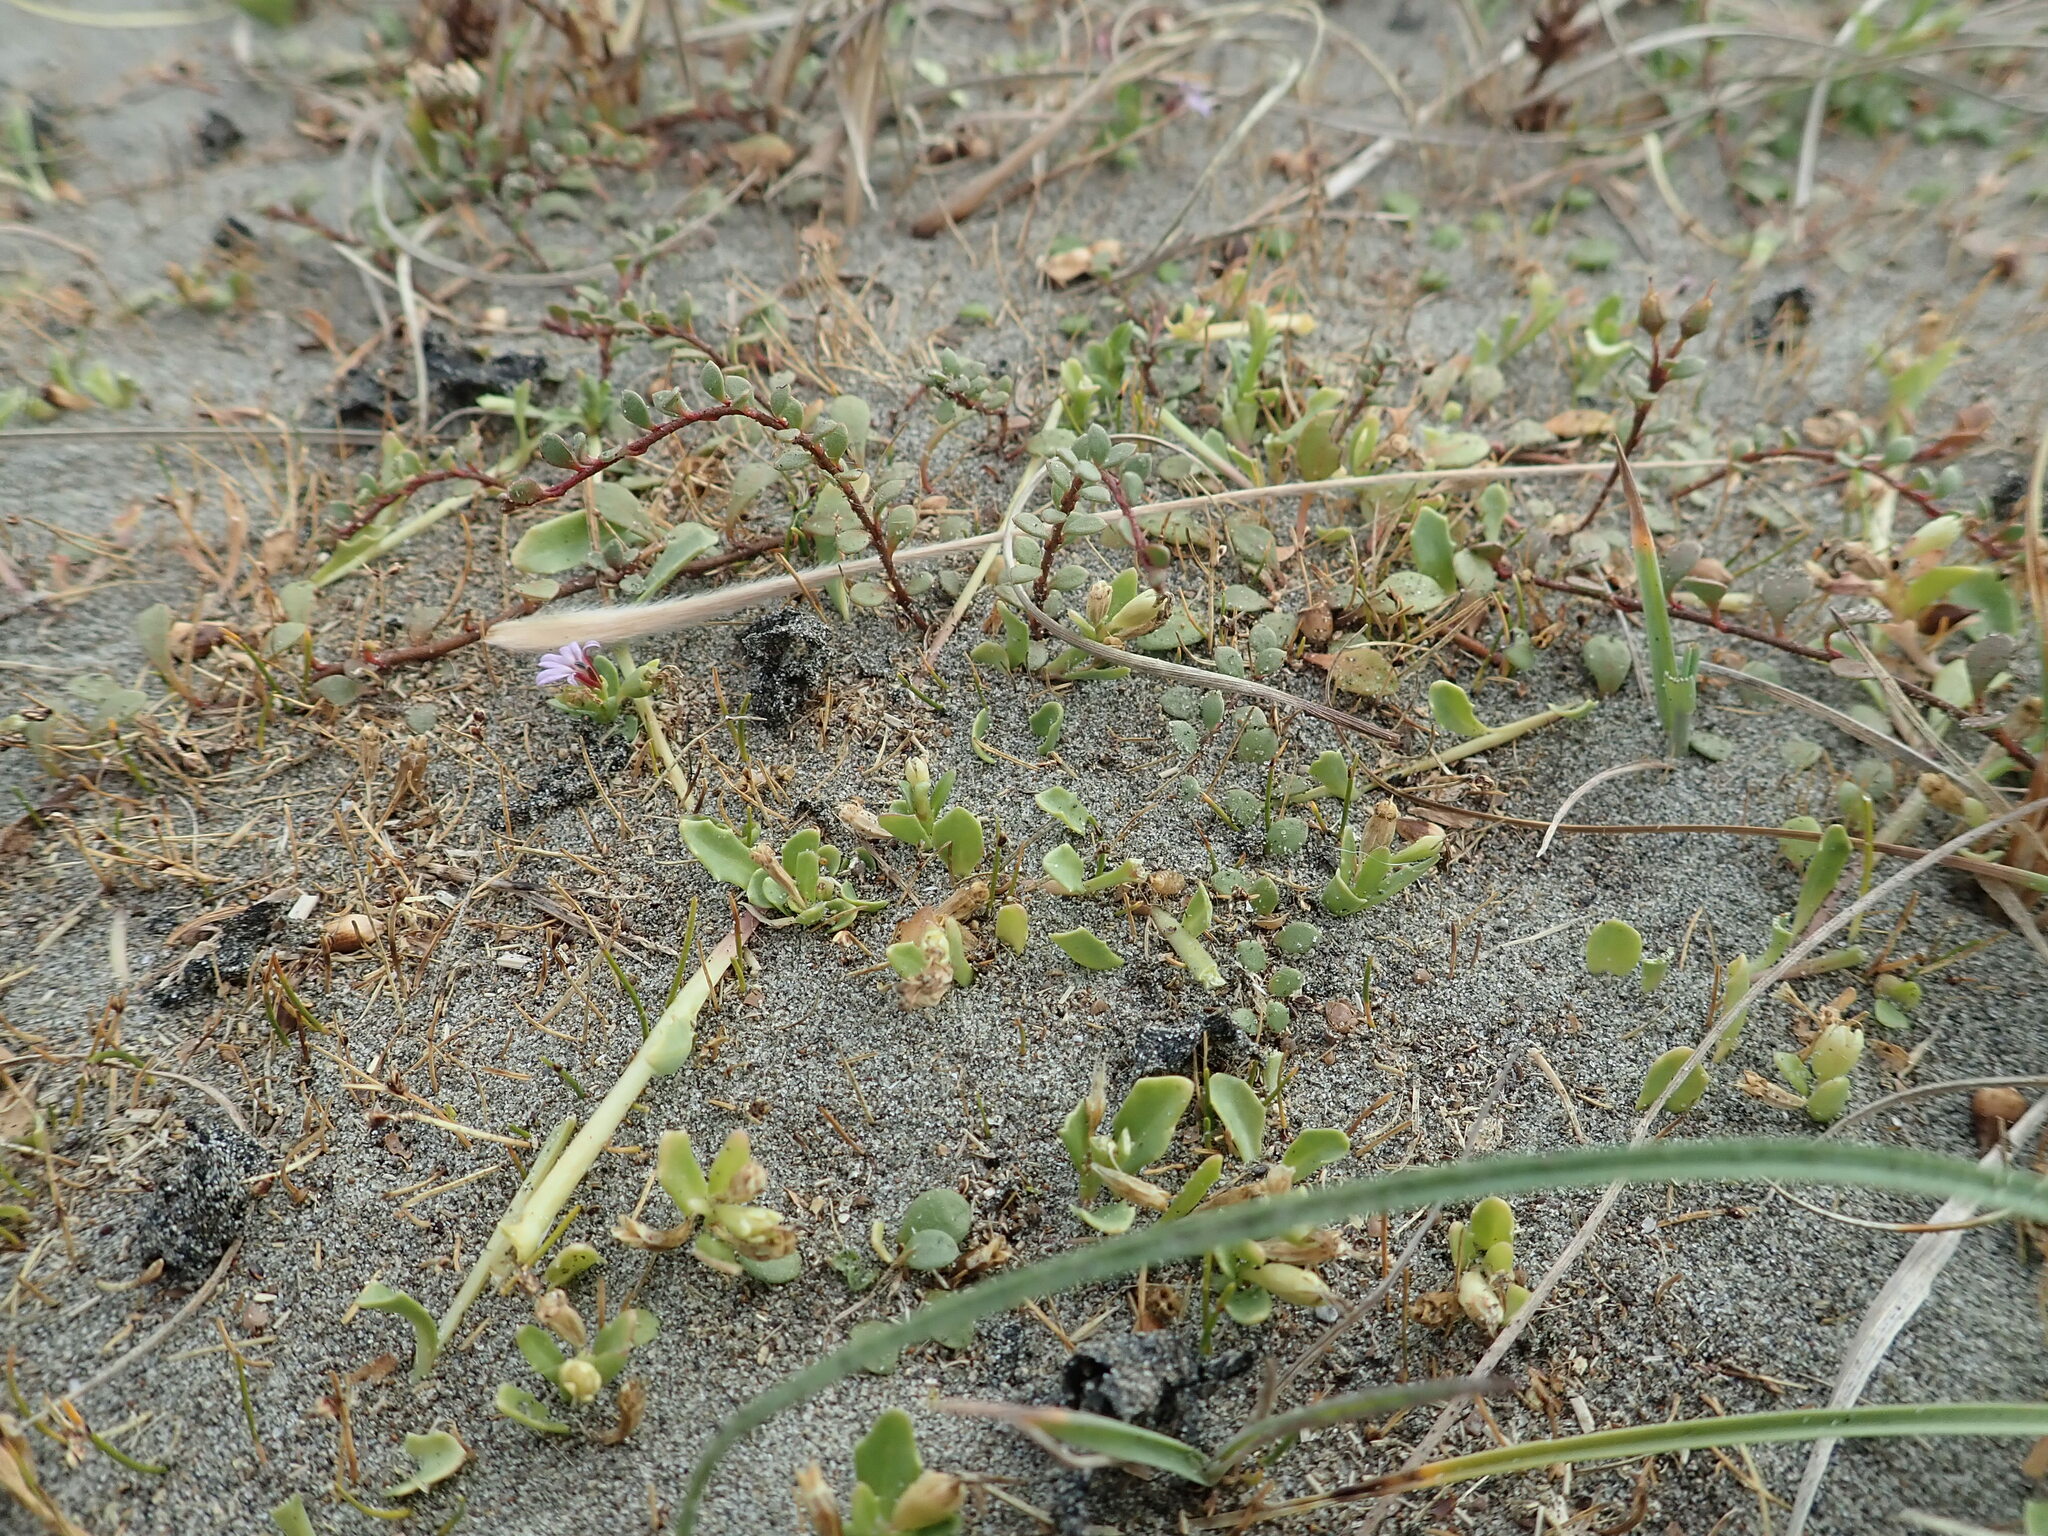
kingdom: Plantae
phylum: Tracheophyta
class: Magnoliopsida
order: Asterales
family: Campanulaceae
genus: Lobelia
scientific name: Lobelia anceps
